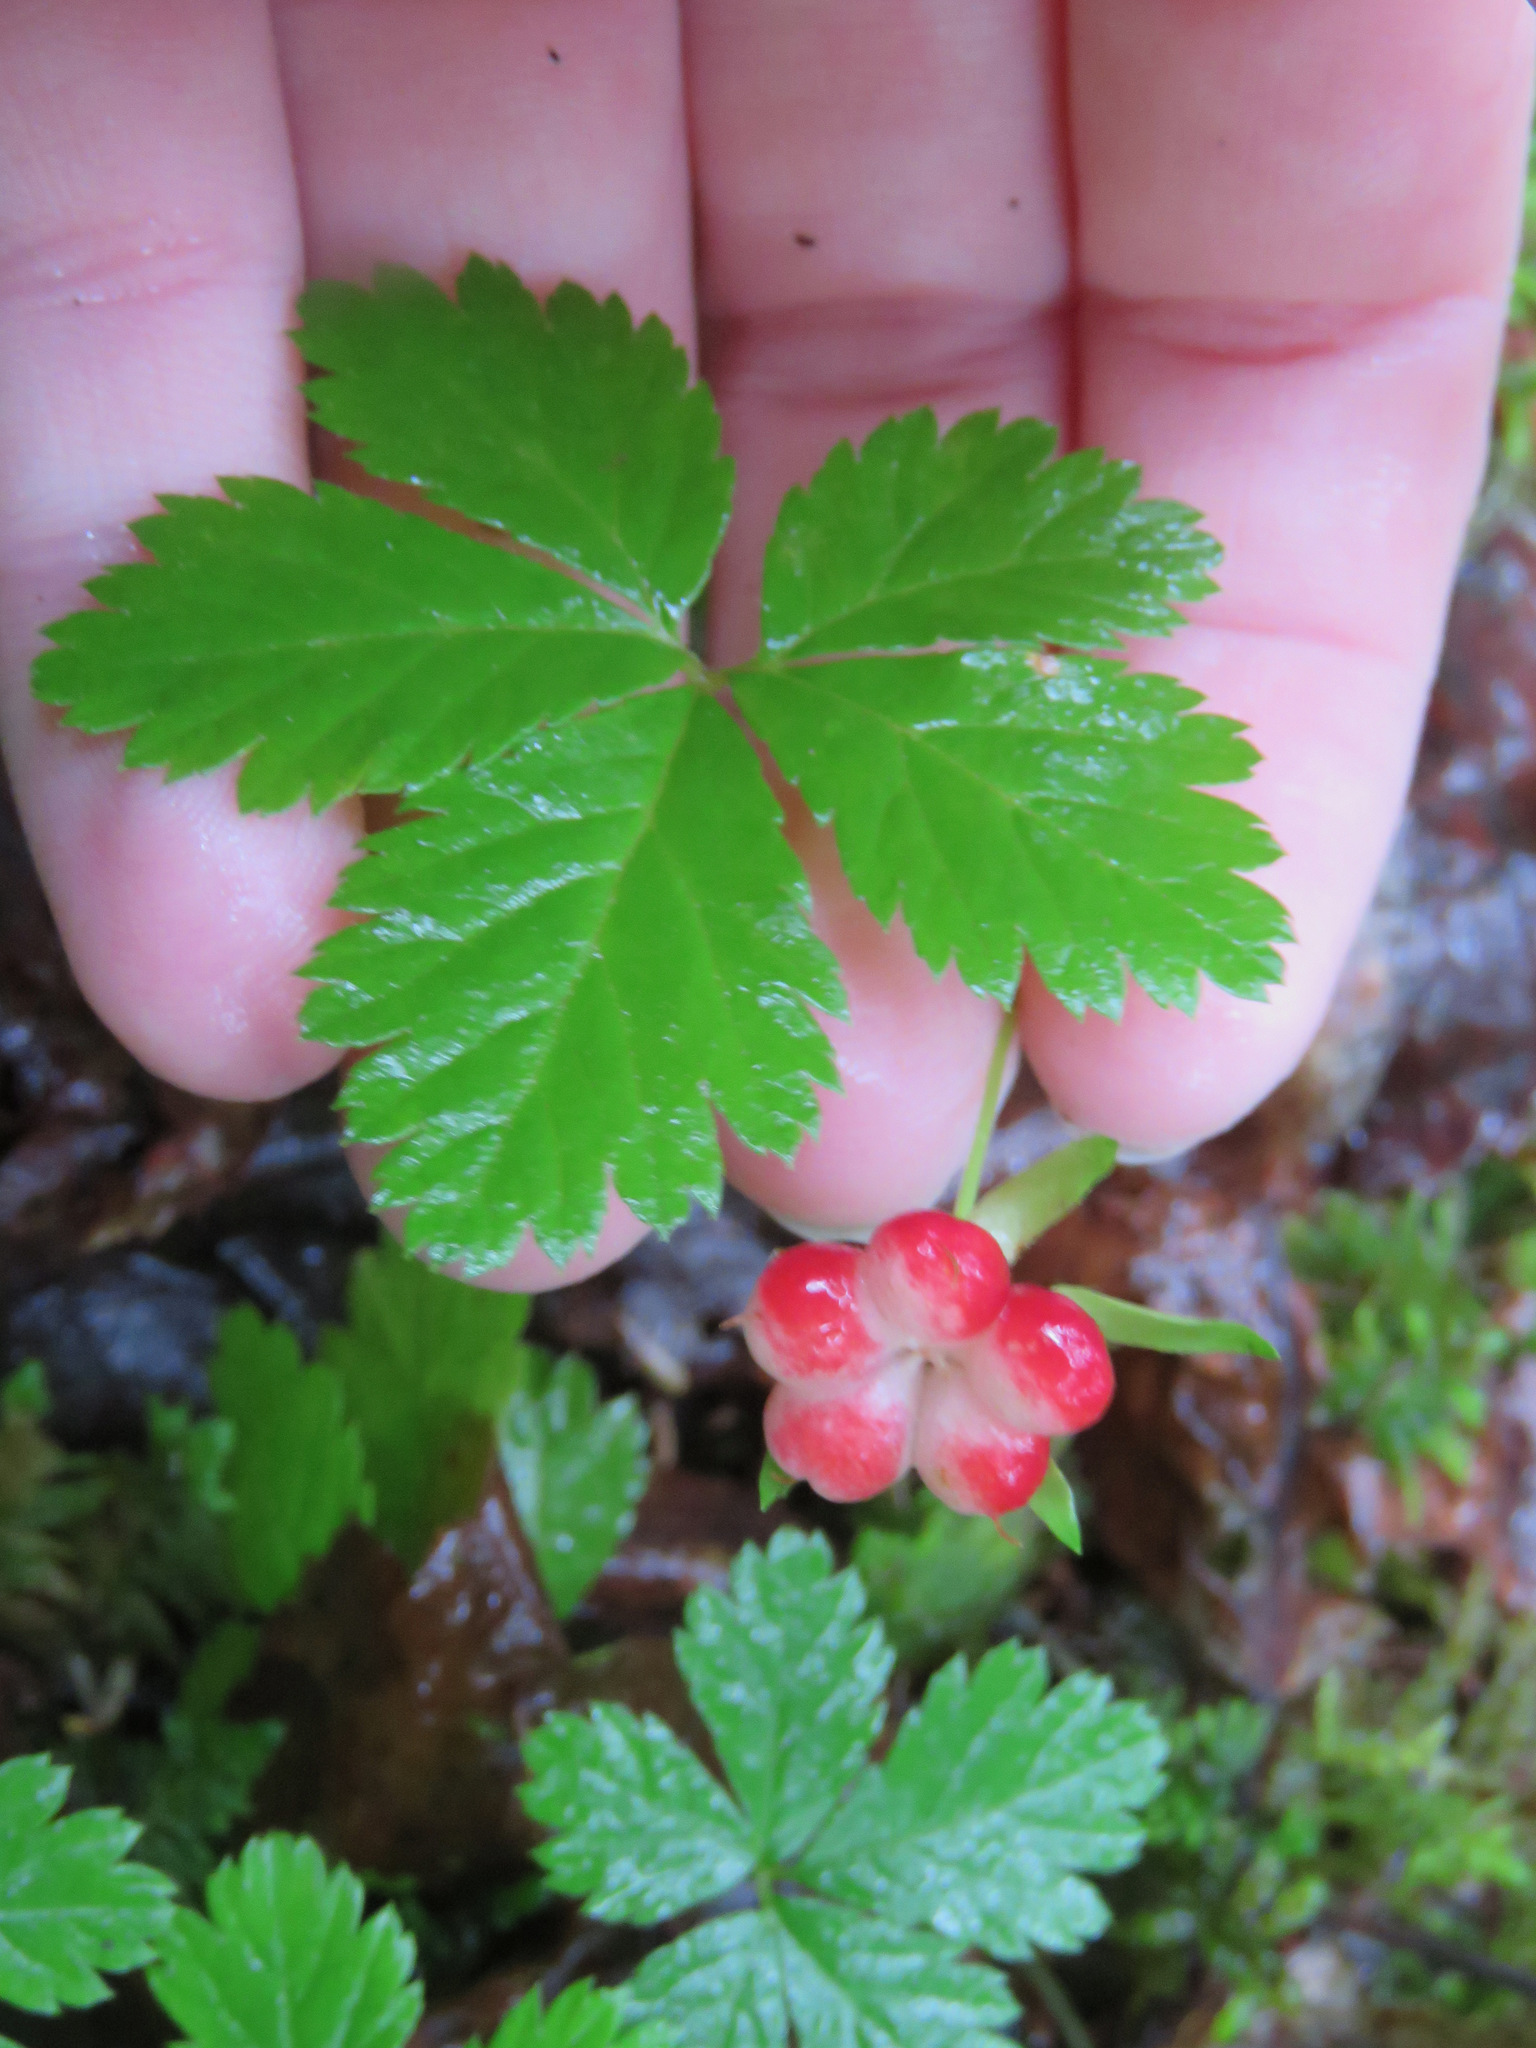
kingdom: Plantae
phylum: Tracheophyta
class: Magnoliopsida
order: Rosales
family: Rosaceae
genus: Rubus
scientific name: Rubus pedatus
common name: Creeping raspberry
